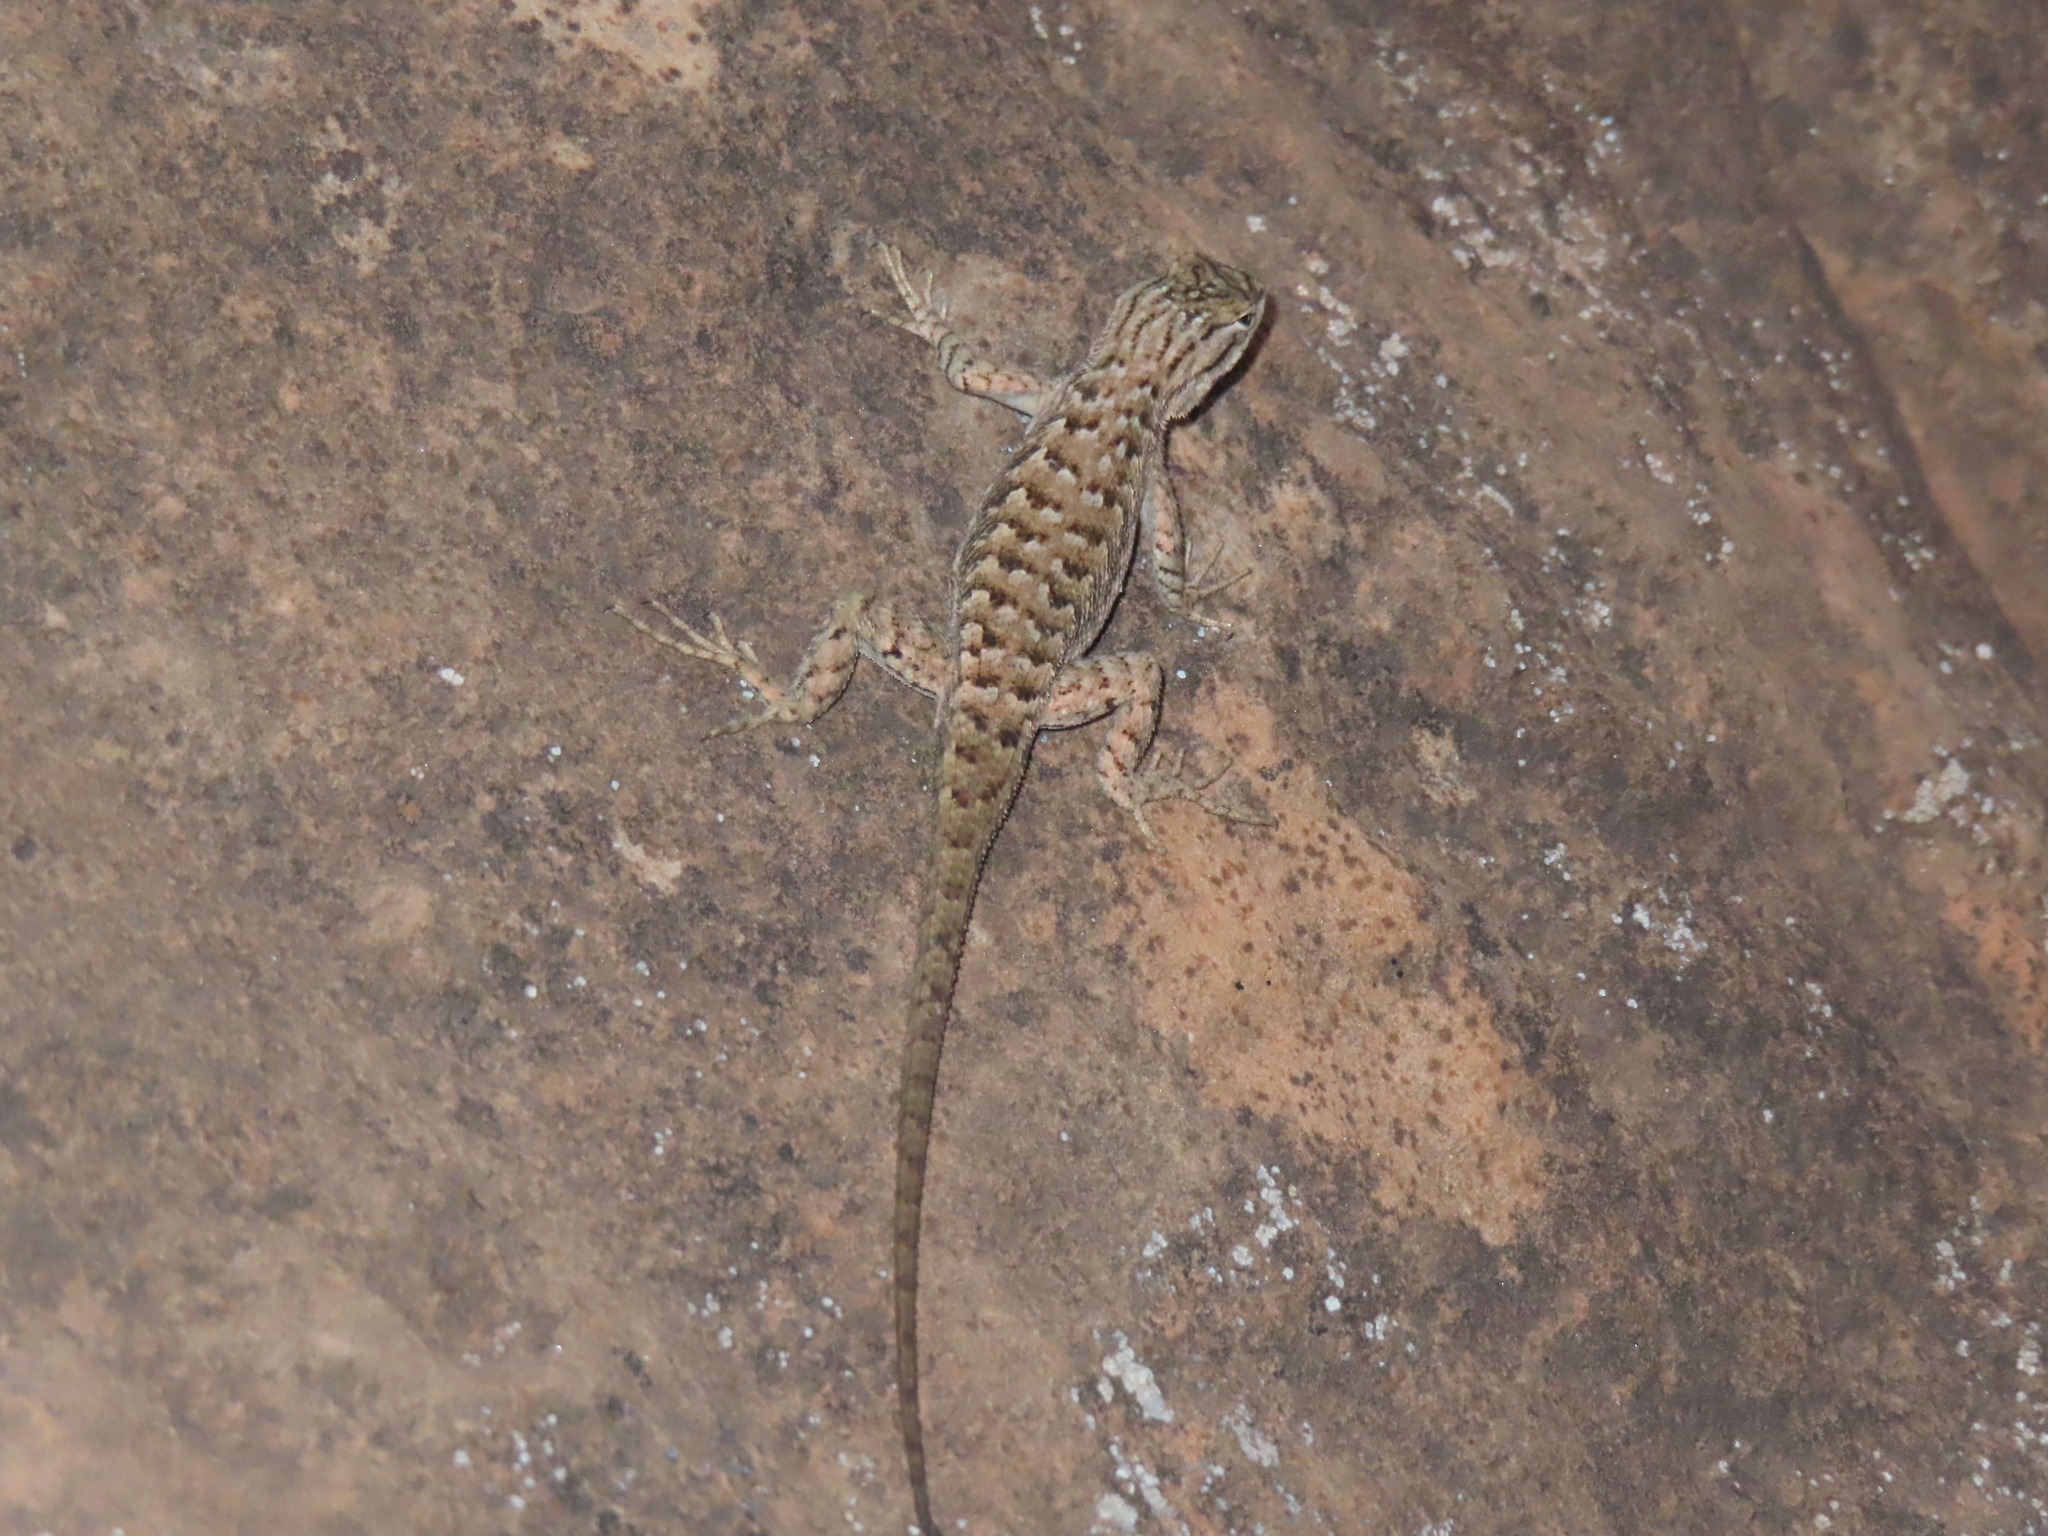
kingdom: Animalia
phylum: Chordata
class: Squamata
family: Phrynosomatidae
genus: Sceloporus
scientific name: Sceloporus tristichus
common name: Plateau fence lizard
